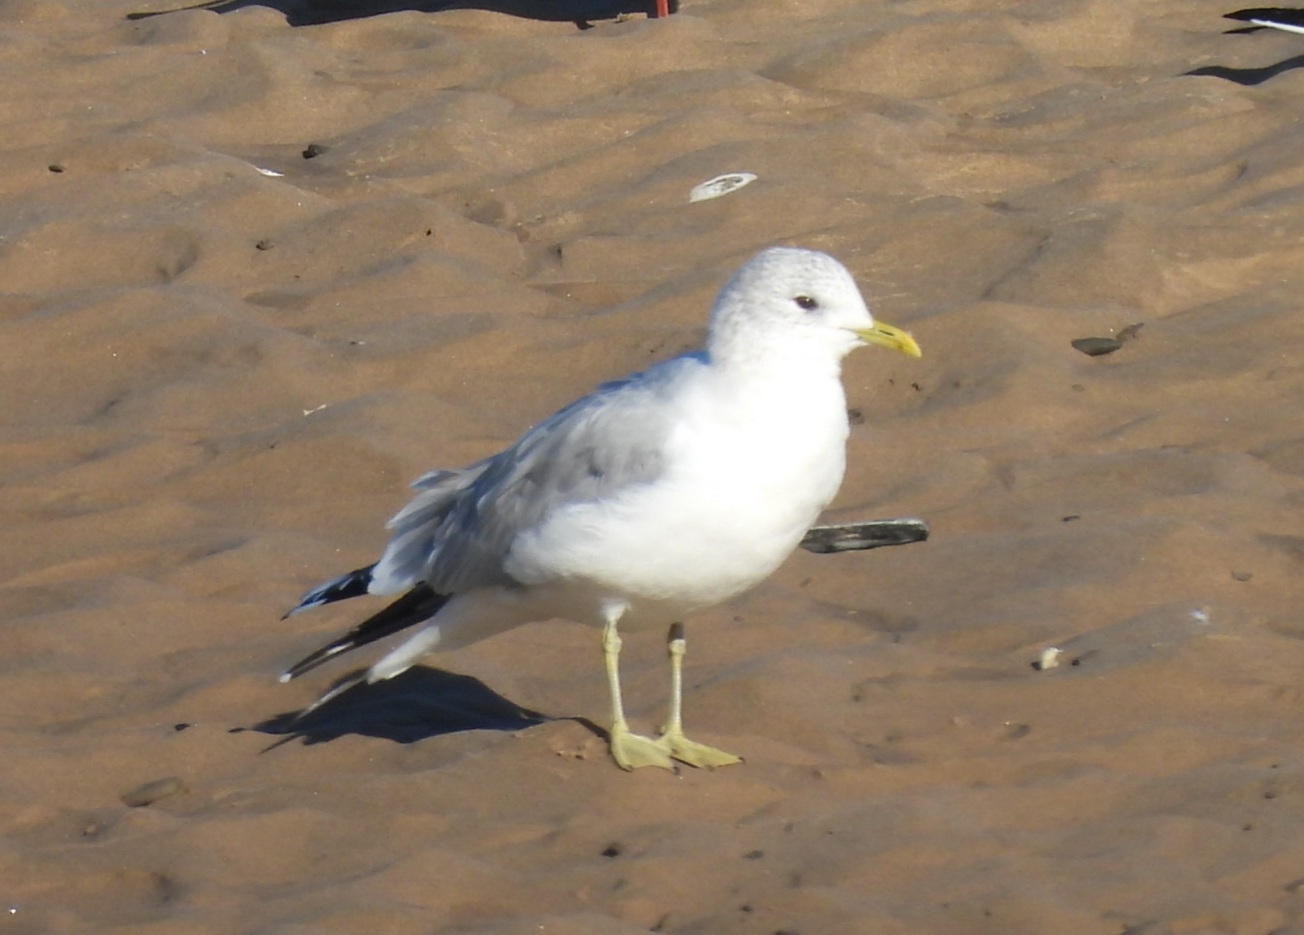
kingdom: Animalia
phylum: Chordata
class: Aves
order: Charadriiformes
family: Laridae
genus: Larus
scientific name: Larus canus
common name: Mew gull
